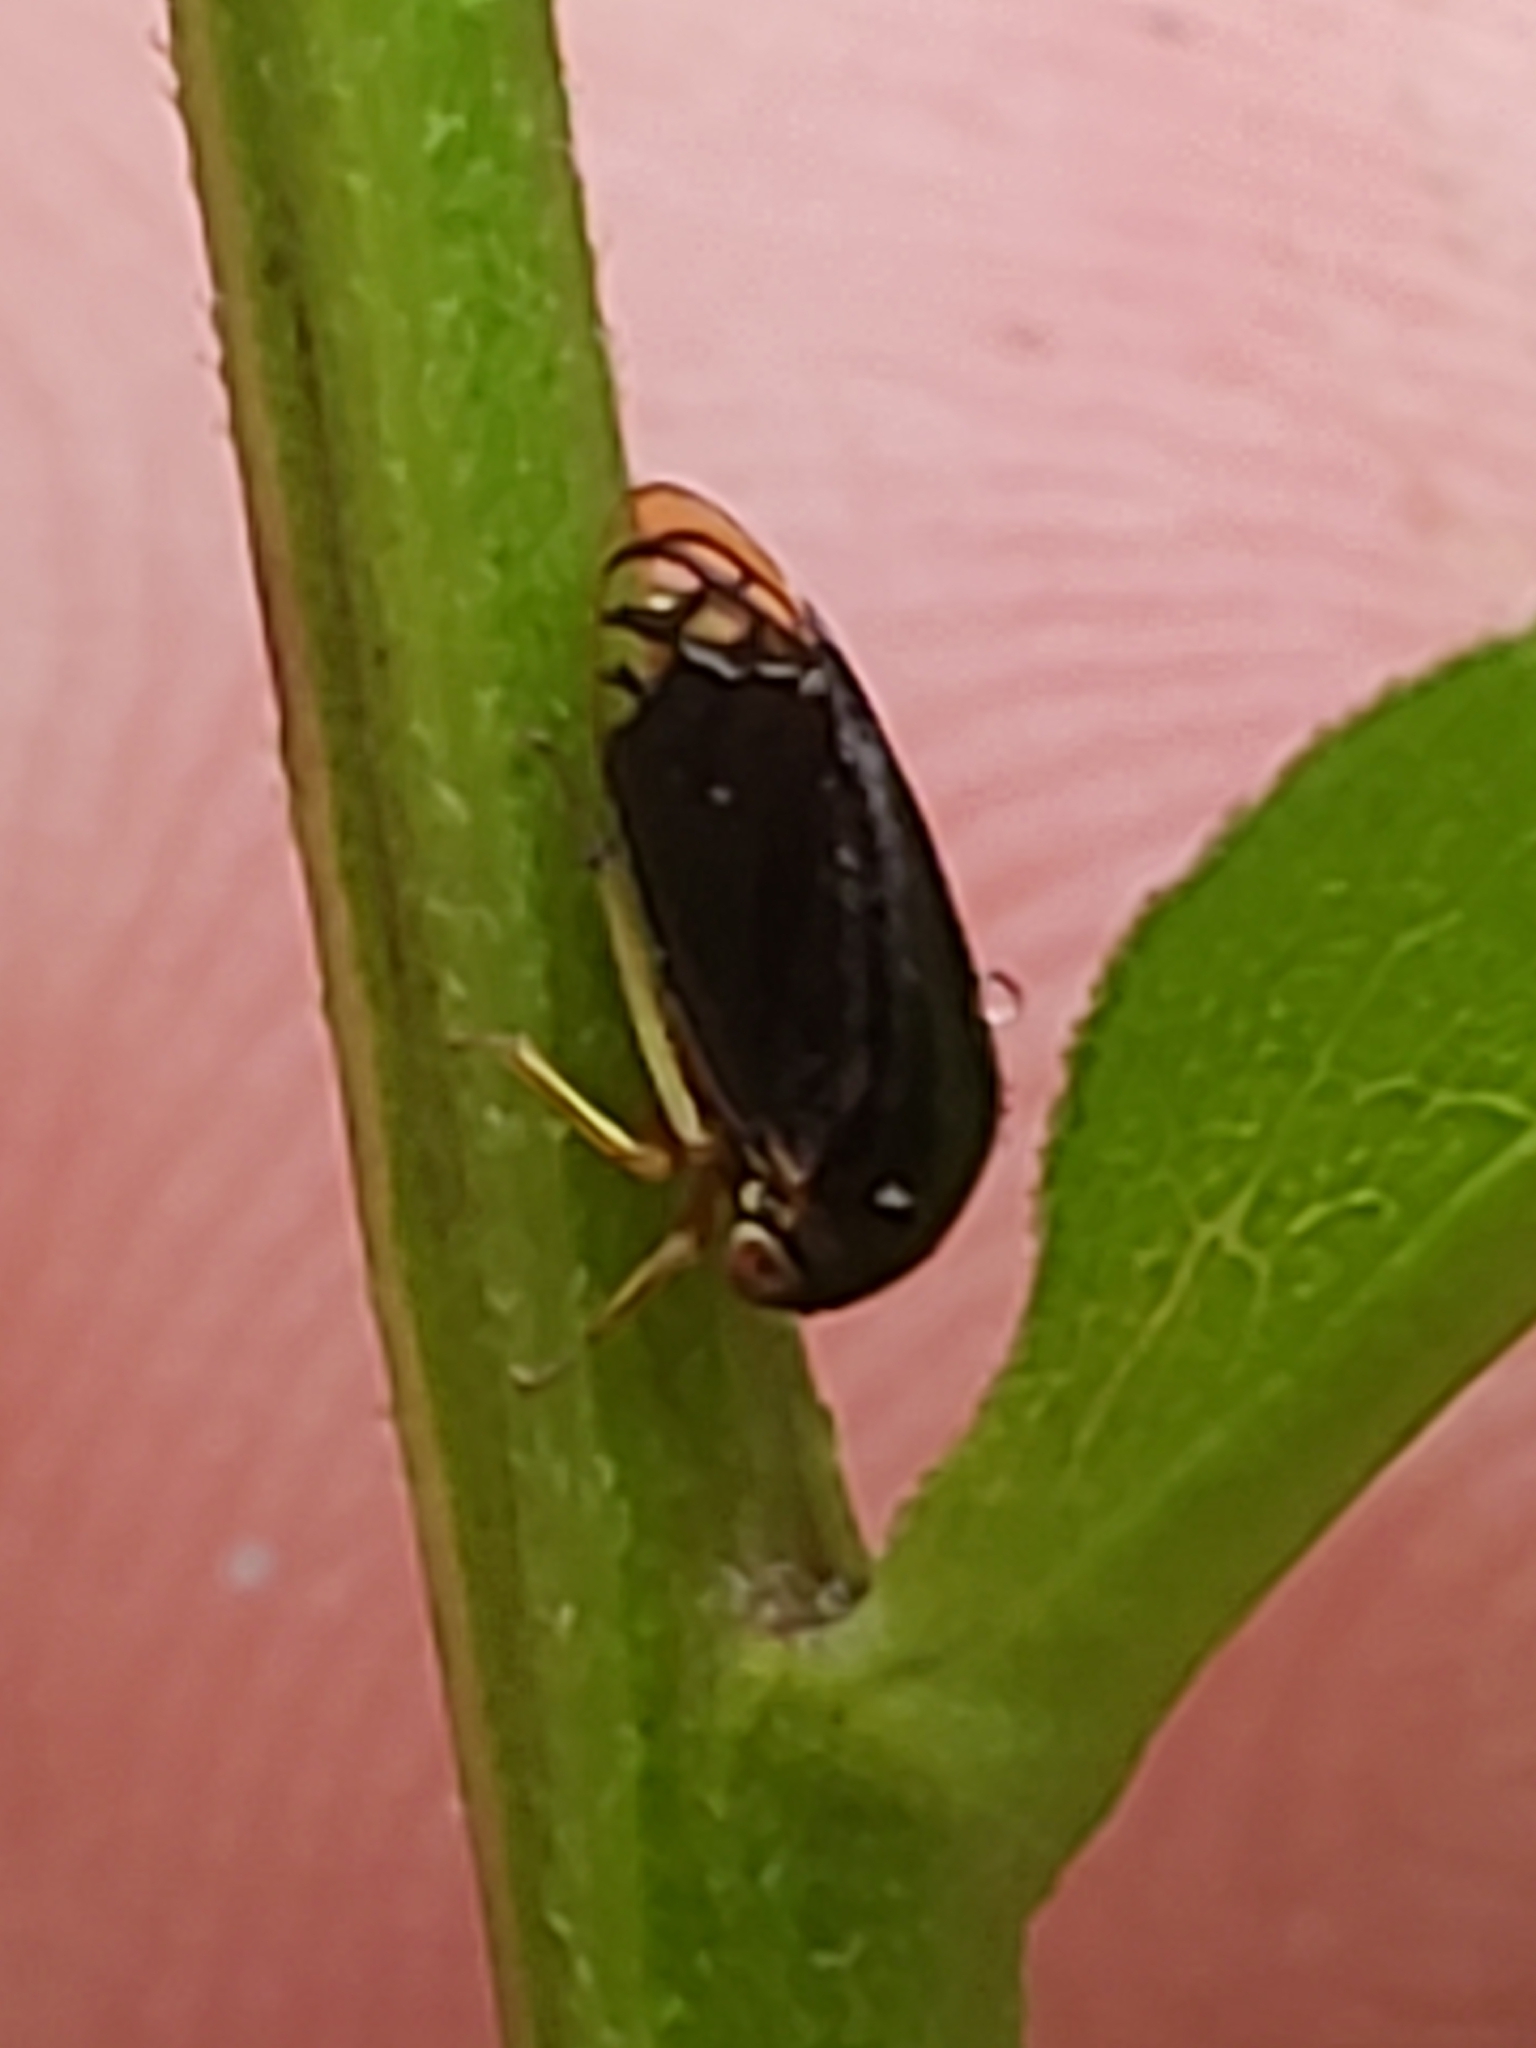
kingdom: Animalia
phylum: Arthropoda
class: Insecta
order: Hemiptera
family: Membracidae
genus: Acutalis
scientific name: Acutalis tartarea
